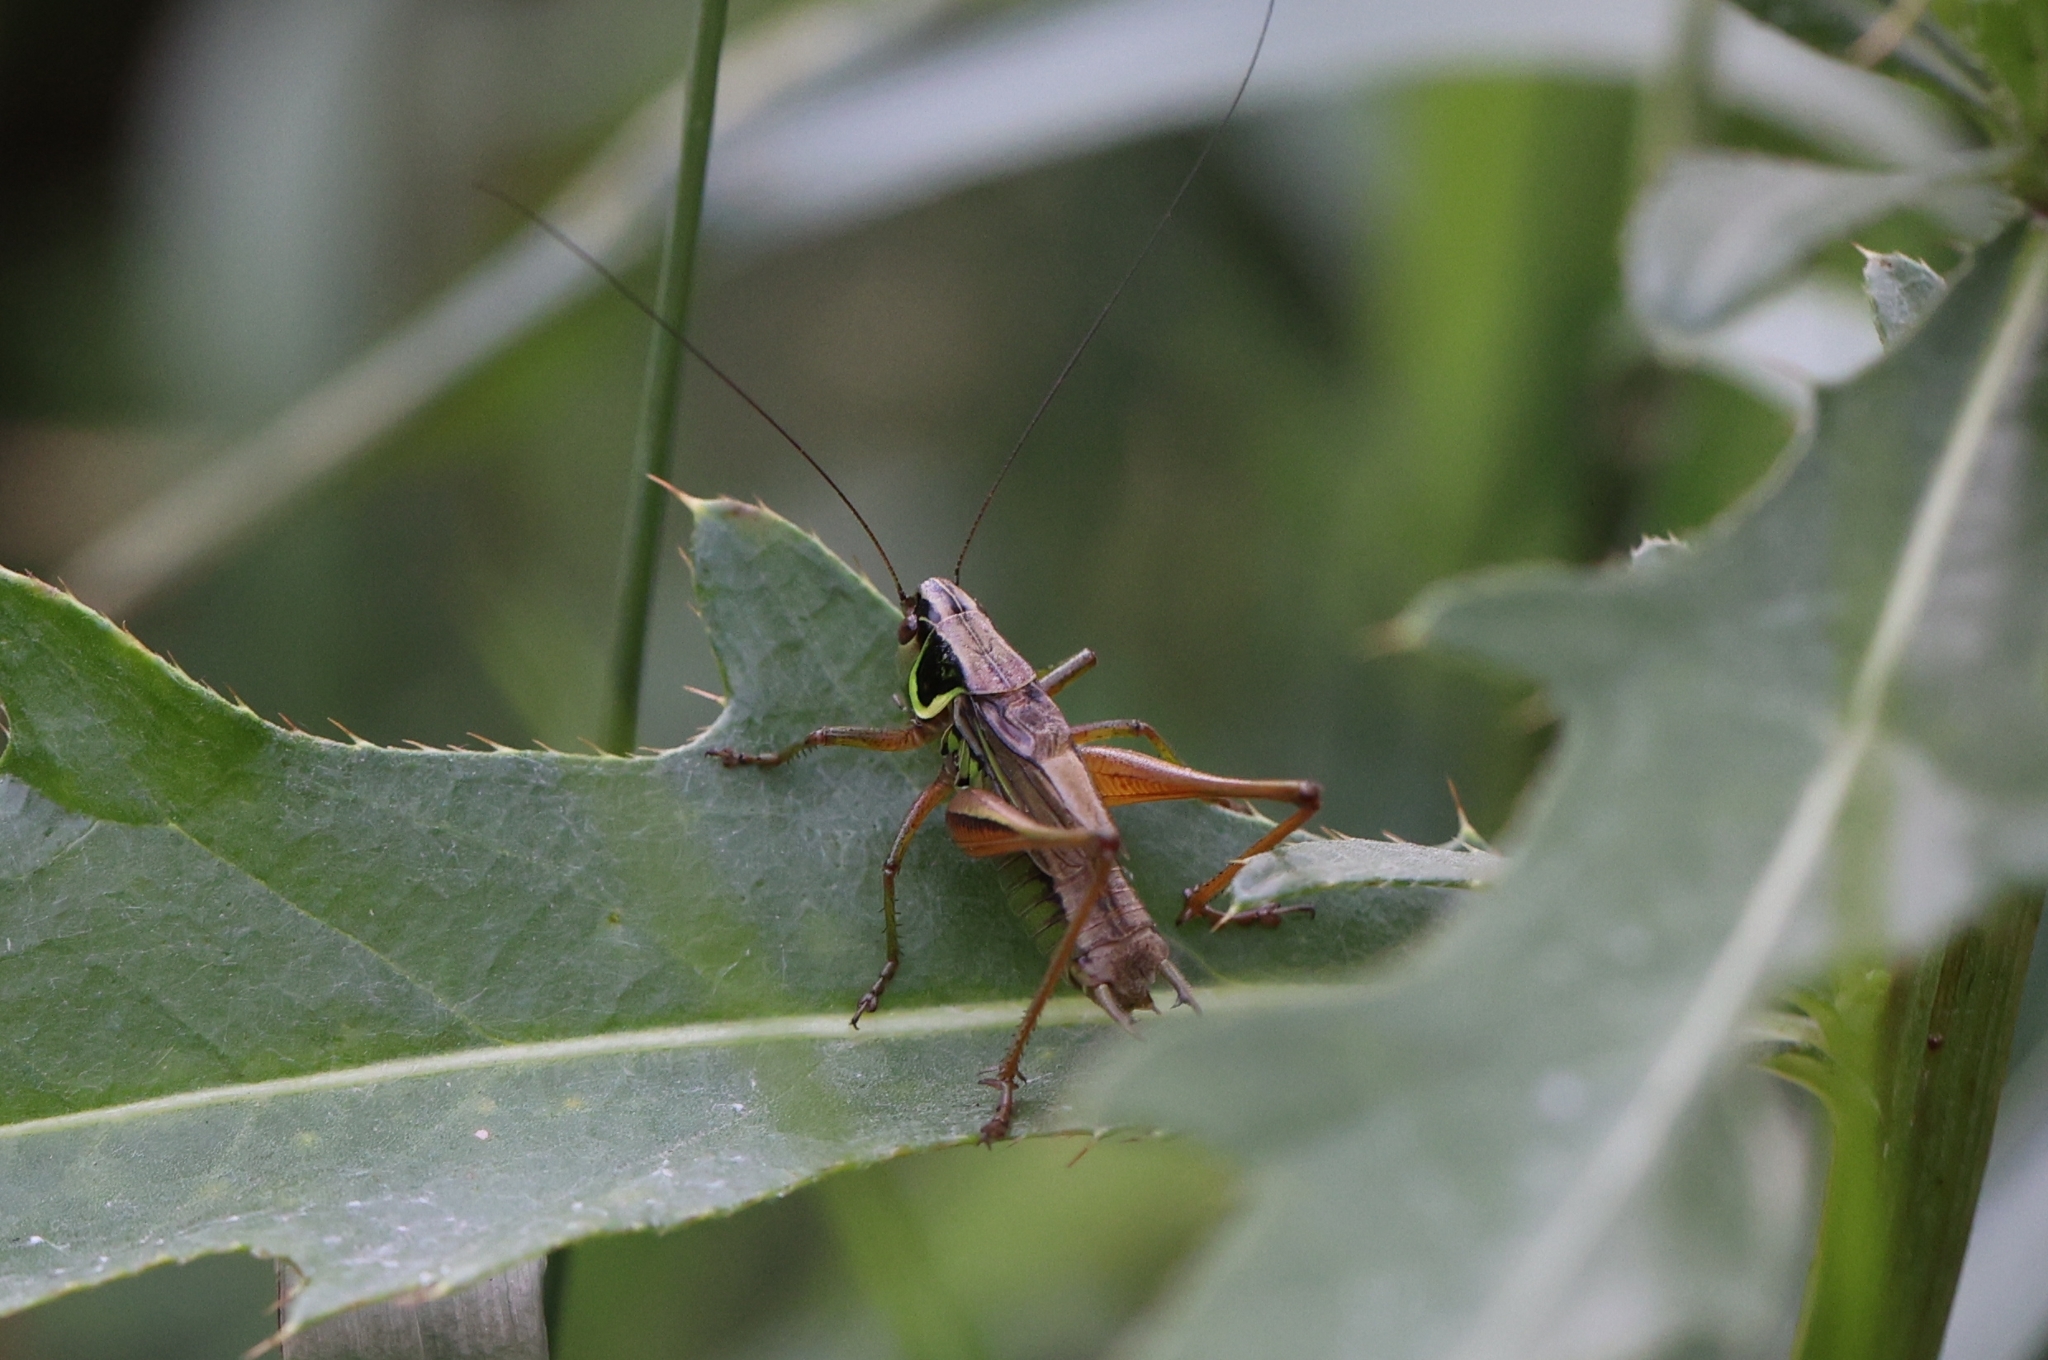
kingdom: Animalia
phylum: Arthropoda
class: Insecta
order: Orthoptera
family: Tettigoniidae
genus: Roeseliana
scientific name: Roeseliana roeselii
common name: Roesel's bush cricket
